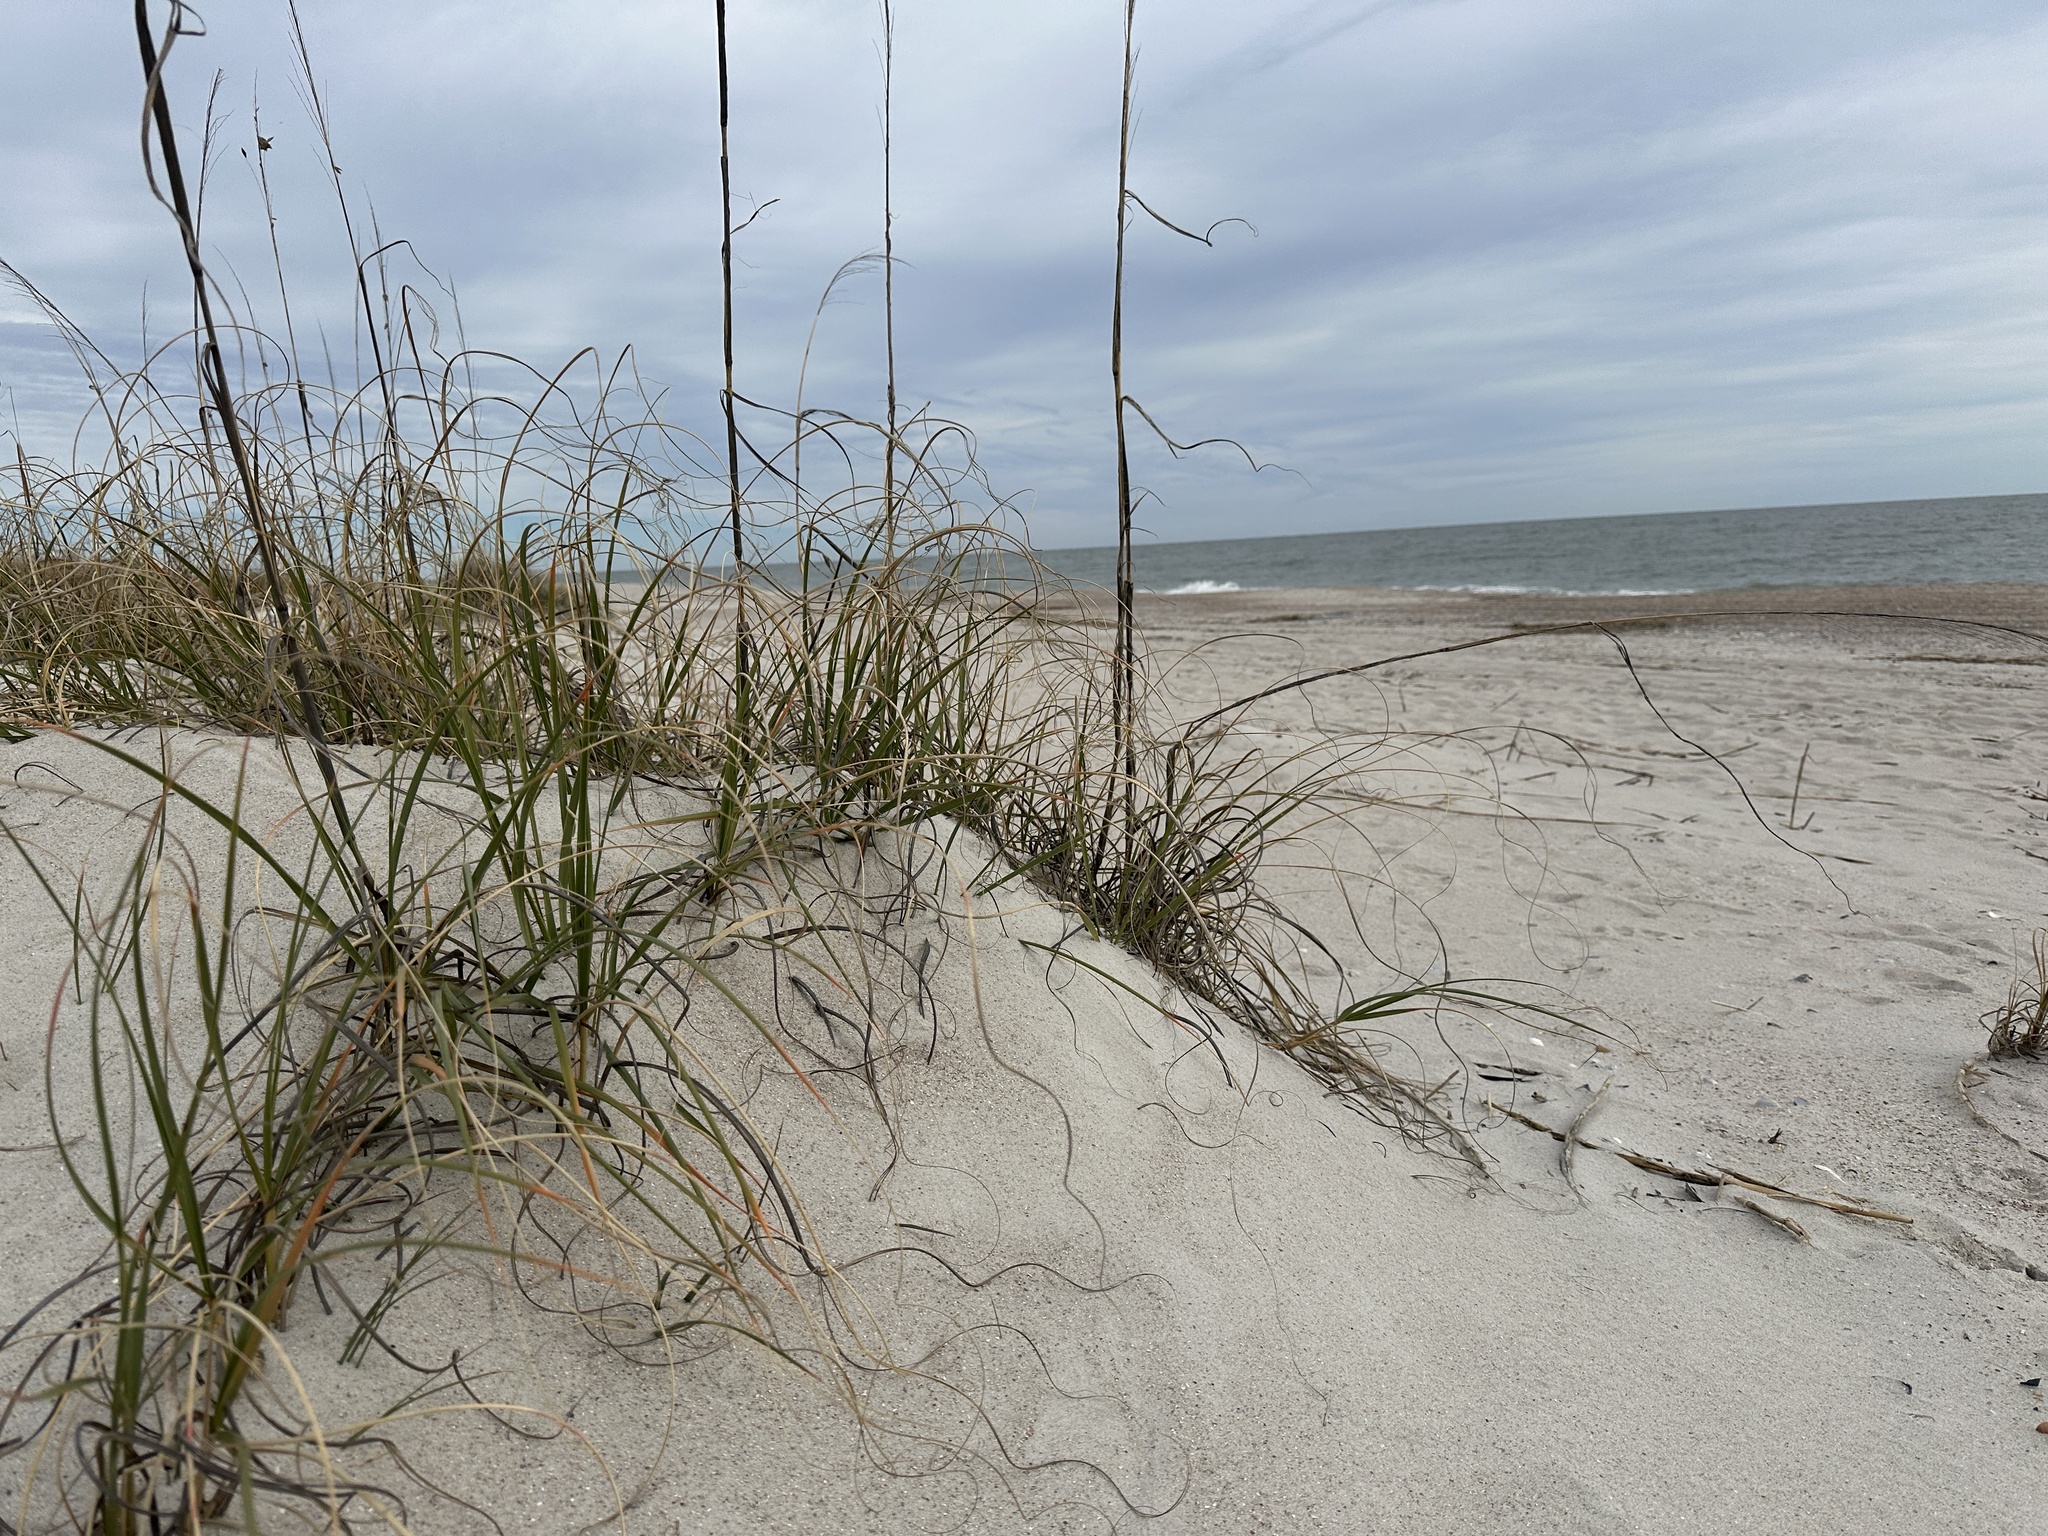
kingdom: Plantae
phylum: Tracheophyta
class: Liliopsida
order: Poales
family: Poaceae
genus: Uniola
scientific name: Uniola paniculata
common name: Seaside-oats
